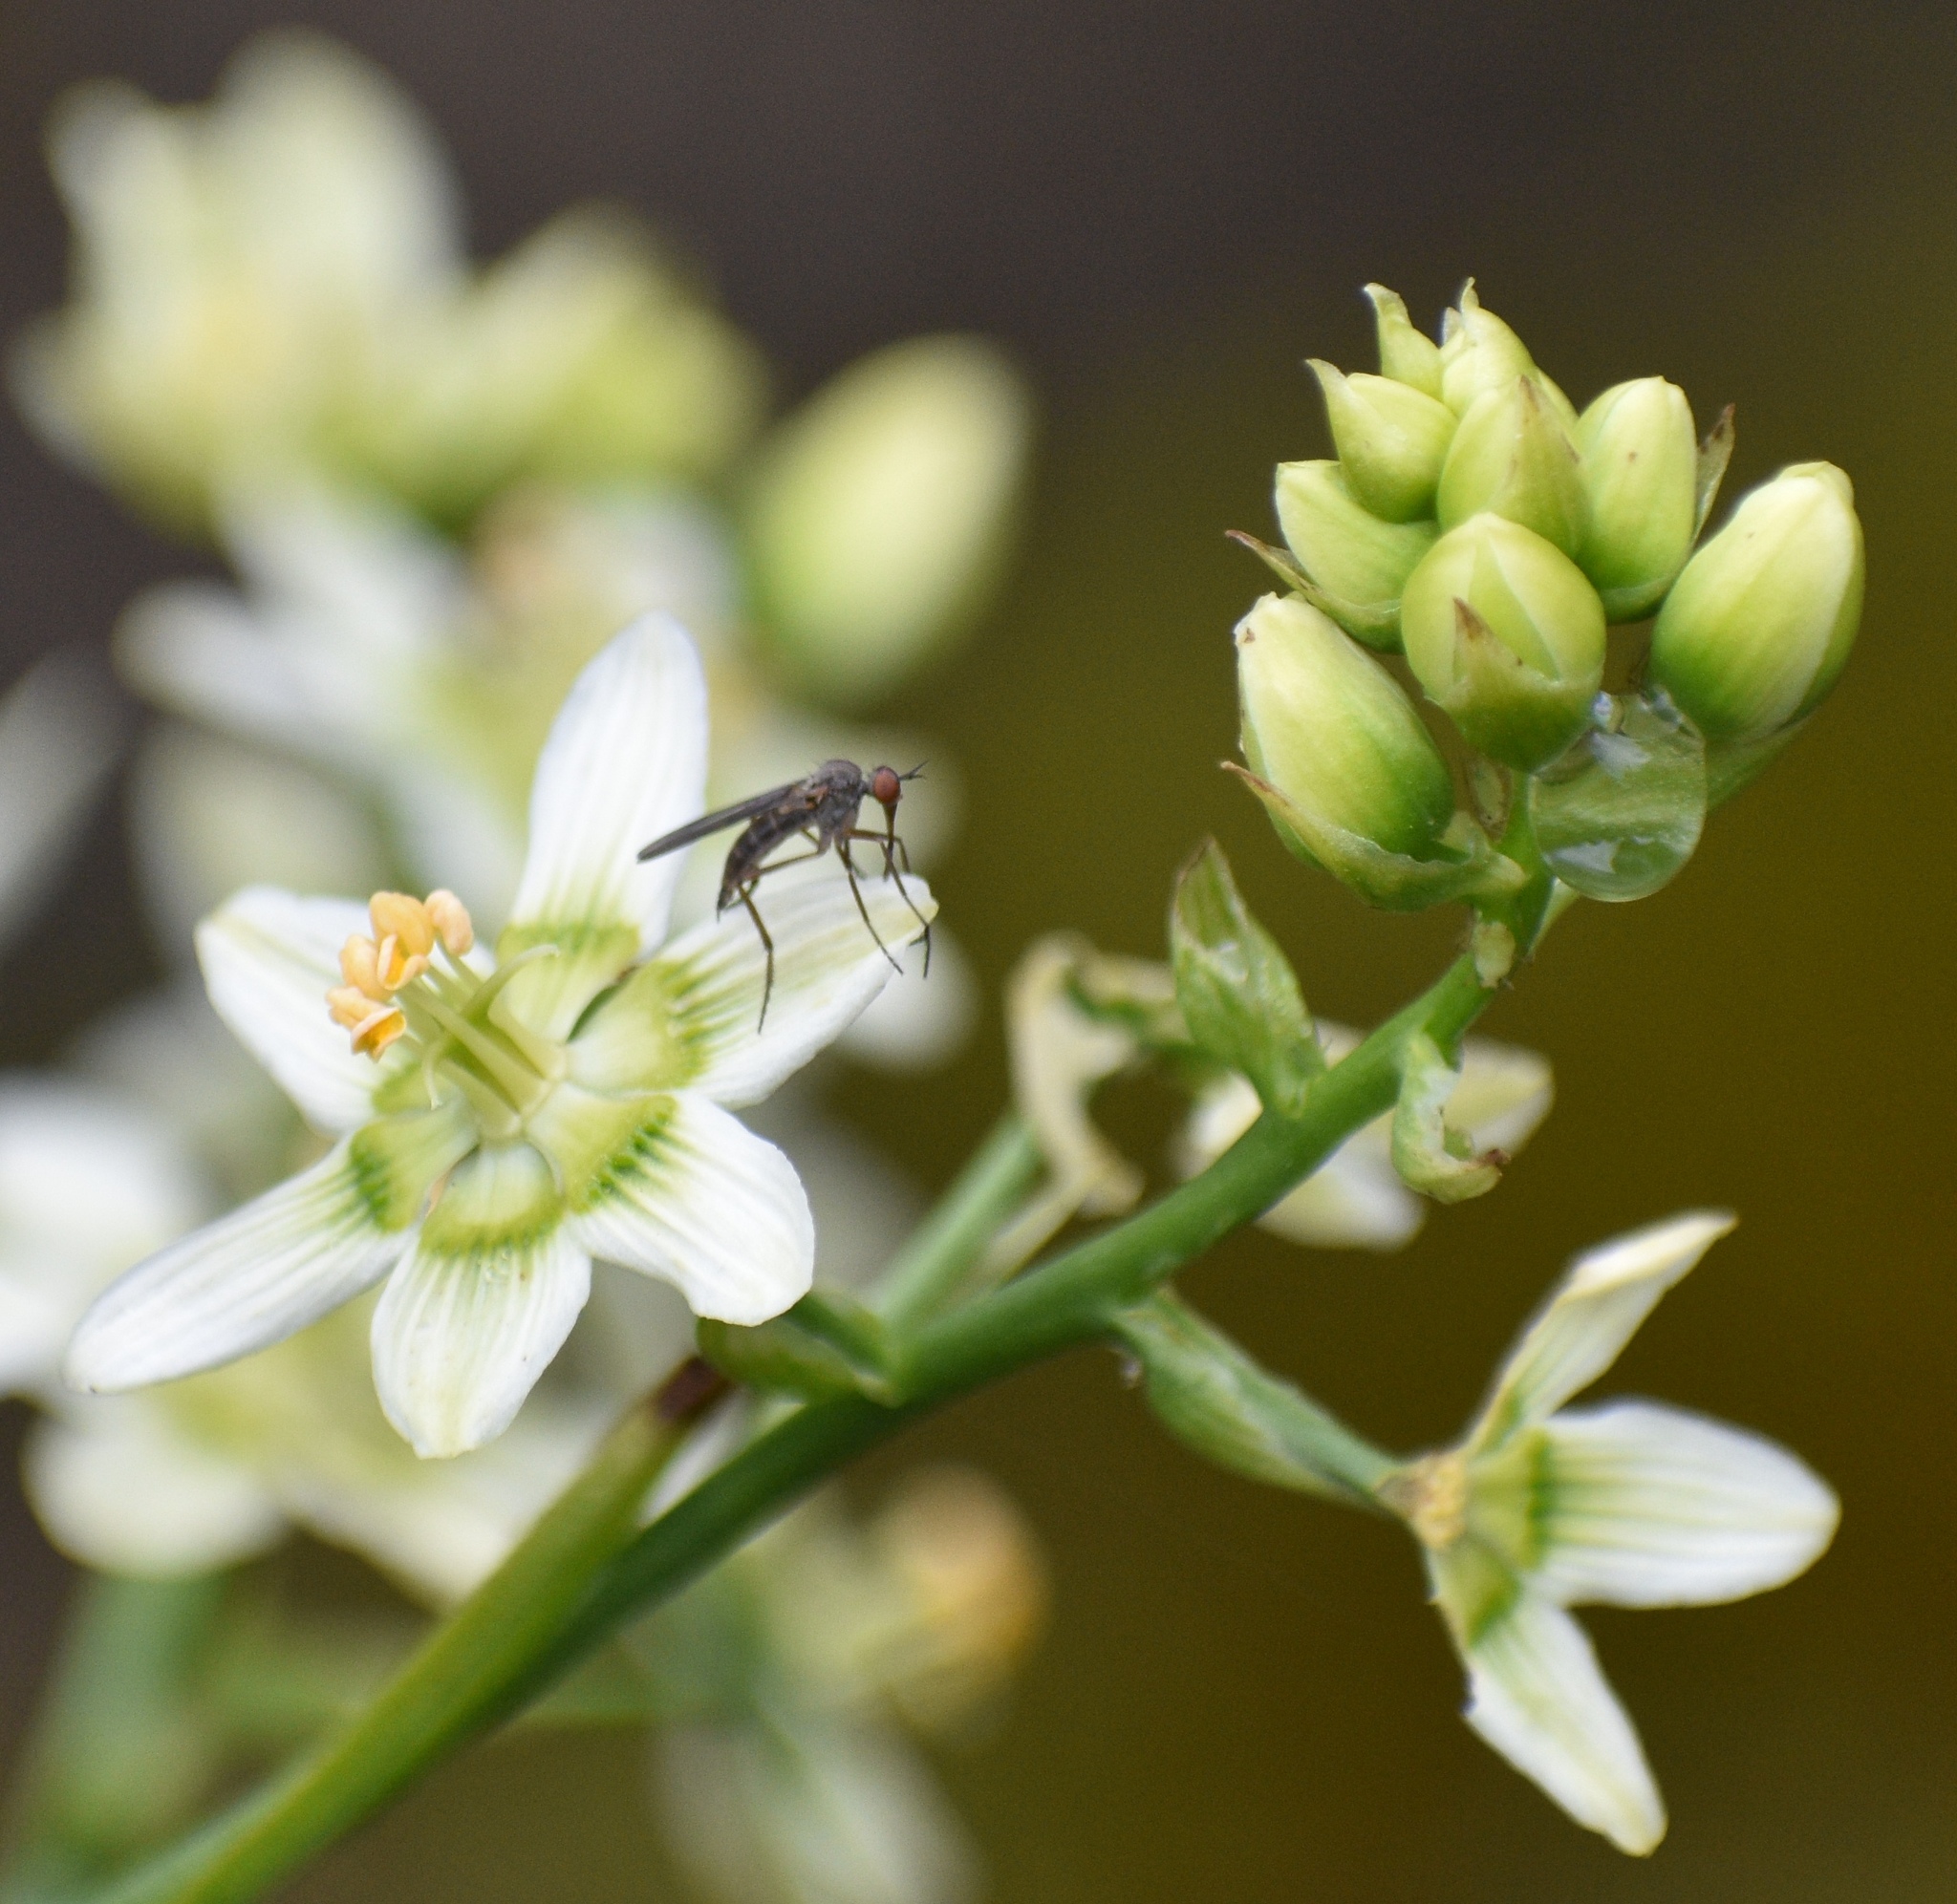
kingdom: Plantae
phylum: Tracheophyta
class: Liliopsida
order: Liliales
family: Melanthiaceae
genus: Toxicoscordion
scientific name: Toxicoscordion fremontii
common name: Fremont's death camas
